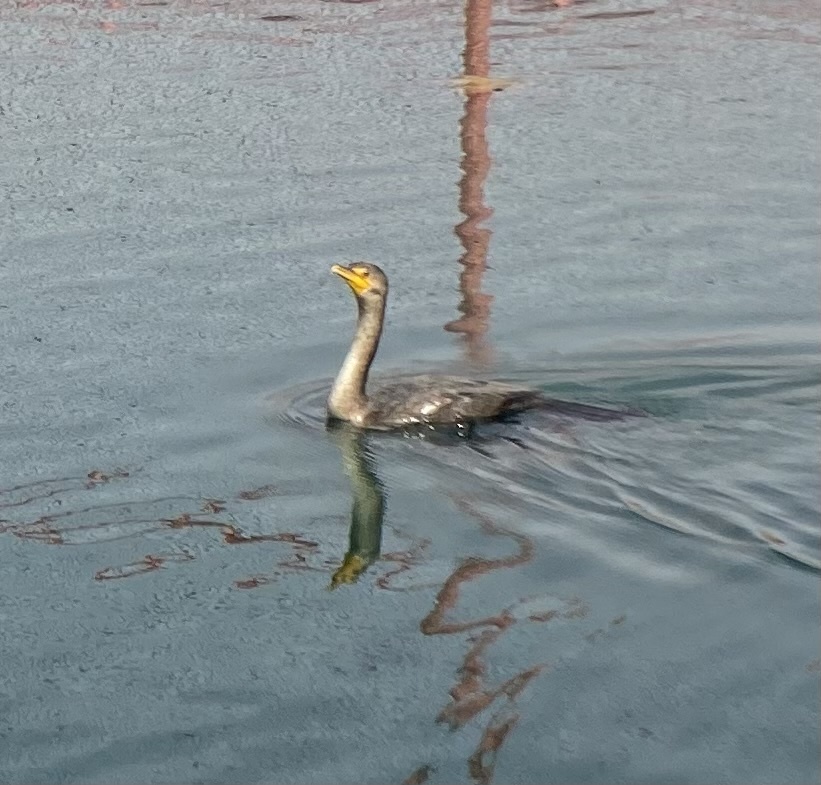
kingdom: Animalia
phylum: Chordata
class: Aves
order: Suliformes
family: Phalacrocoracidae
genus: Phalacrocorax
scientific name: Phalacrocorax auritus
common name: Double-crested cormorant
